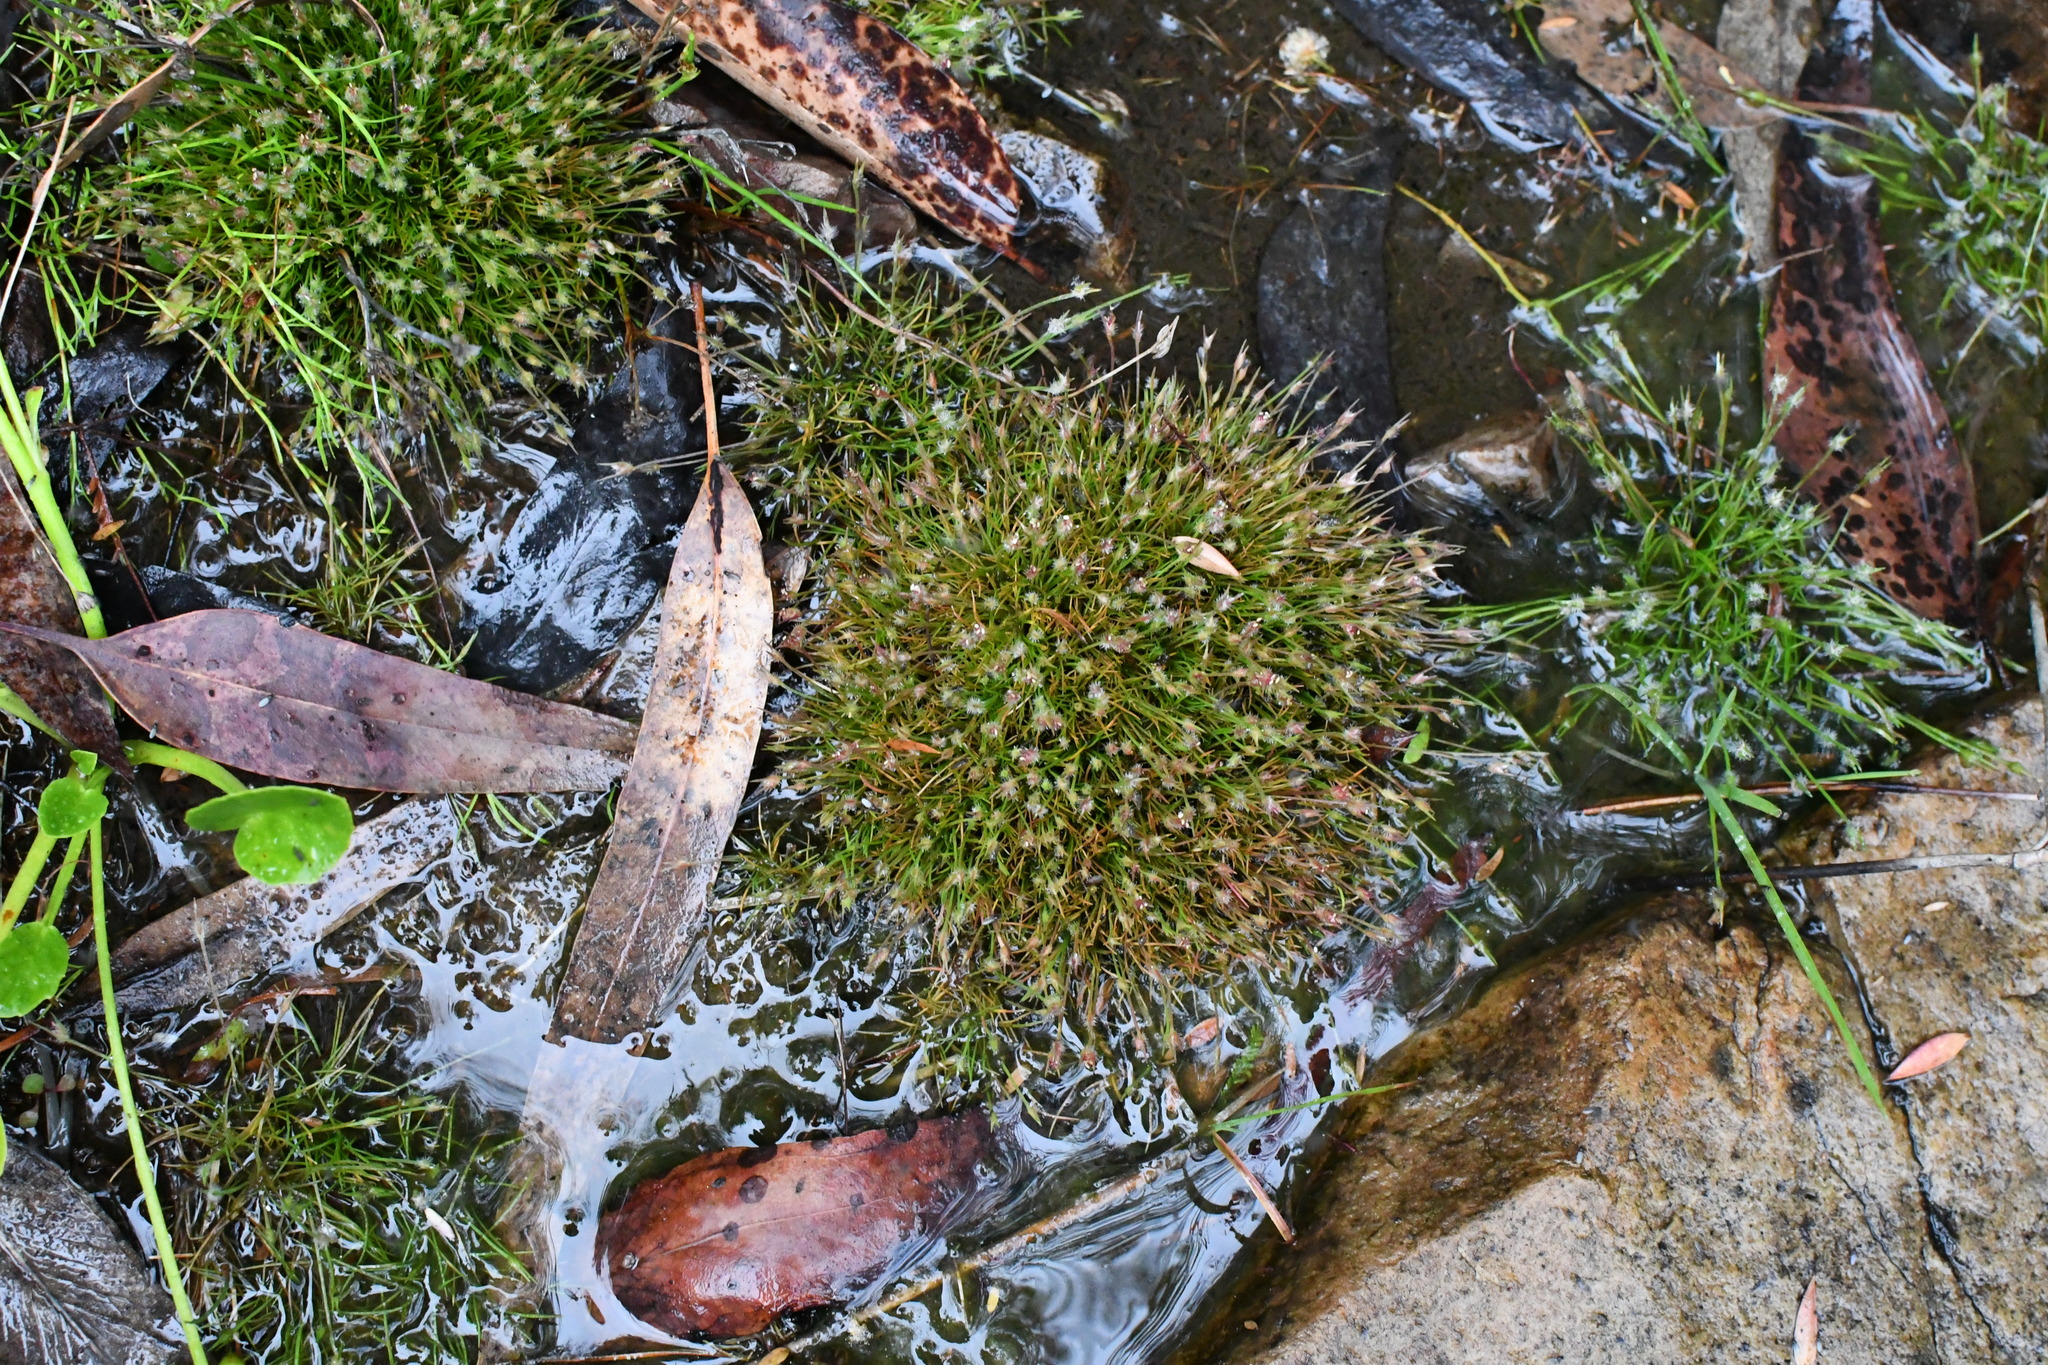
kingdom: Plantae
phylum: Tracheophyta
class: Liliopsida
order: Poales
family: Restionaceae
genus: Centrolepis
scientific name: Centrolepis strigosa
